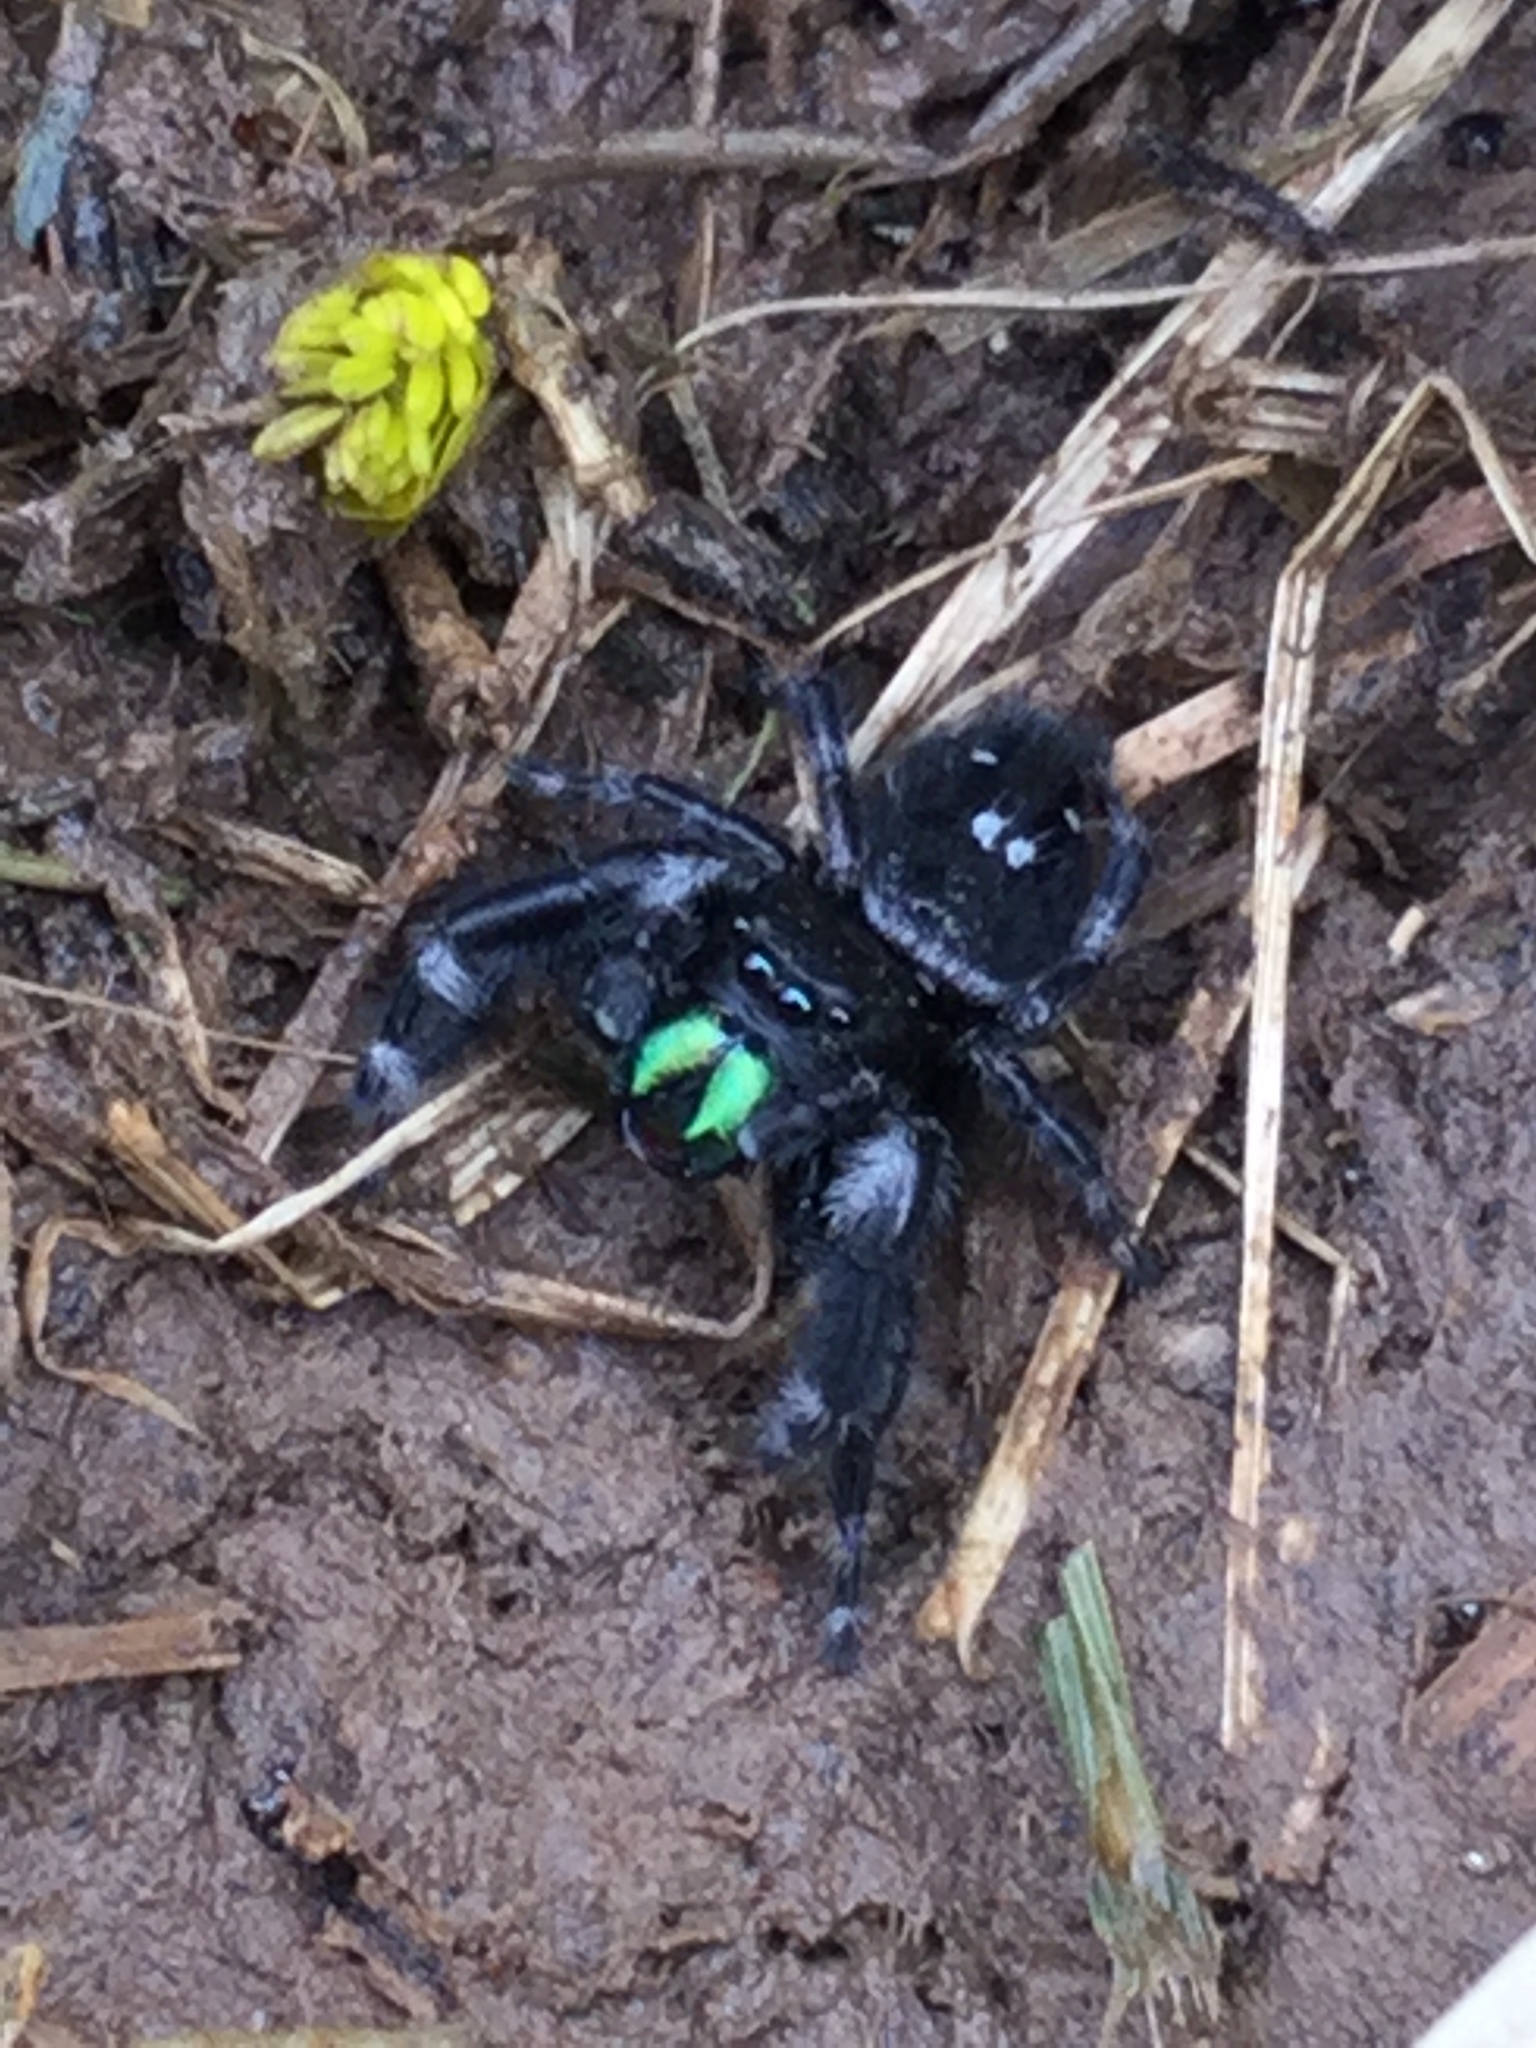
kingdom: Animalia
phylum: Arthropoda
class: Arachnida
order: Araneae
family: Salticidae
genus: Phidippus
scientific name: Phidippus audax
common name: Bold jumper
